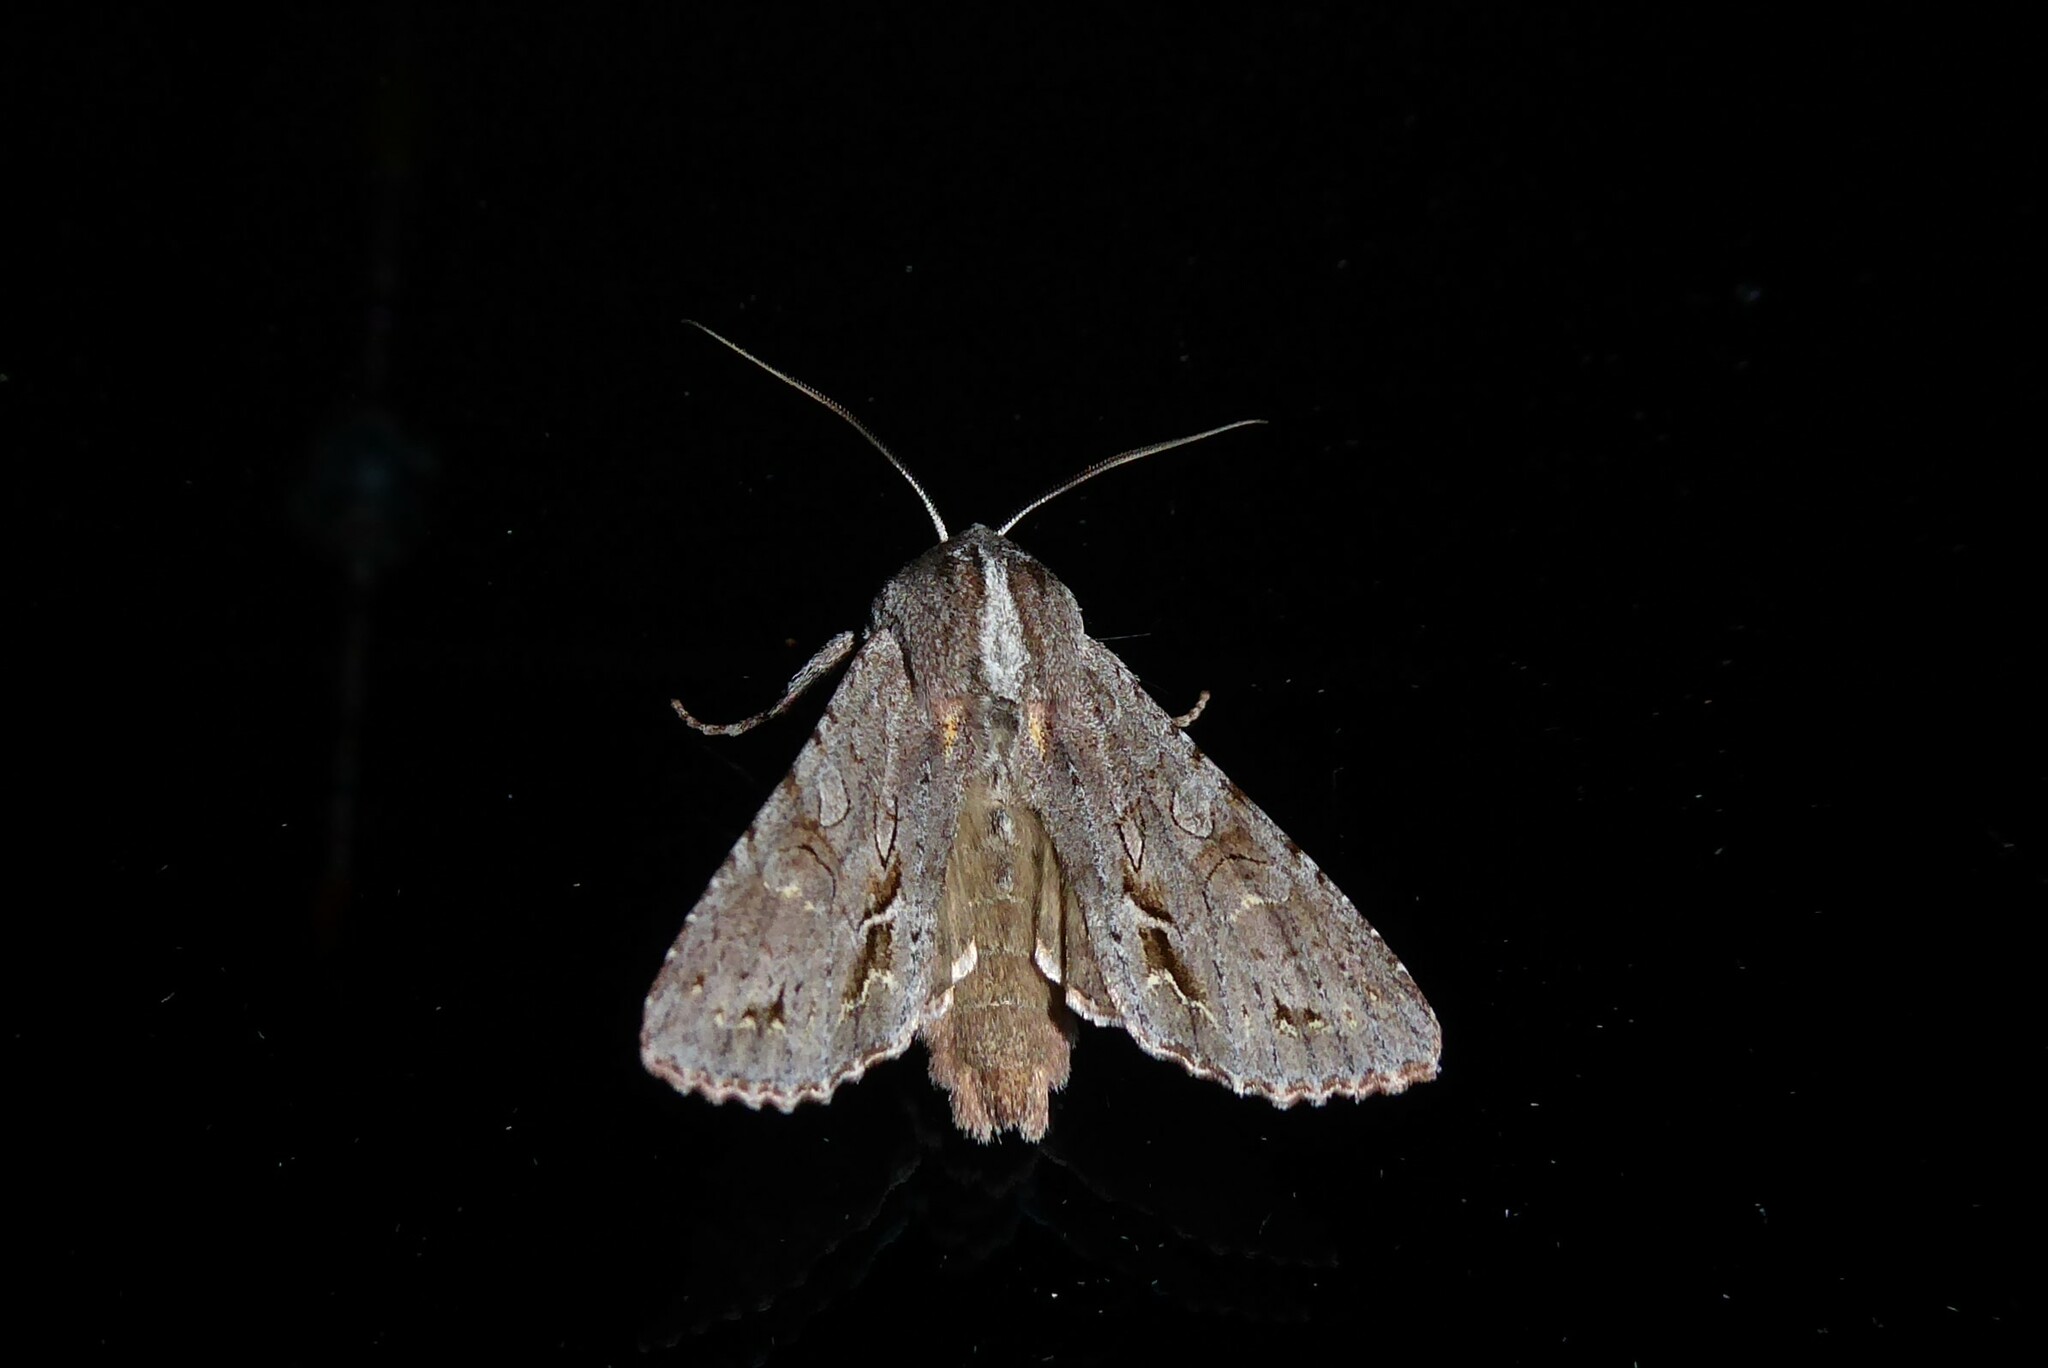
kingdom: Animalia
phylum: Arthropoda
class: Insecta
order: Lepidoptera
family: Noctuidae
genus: Ichneutica
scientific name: Ichneutica
